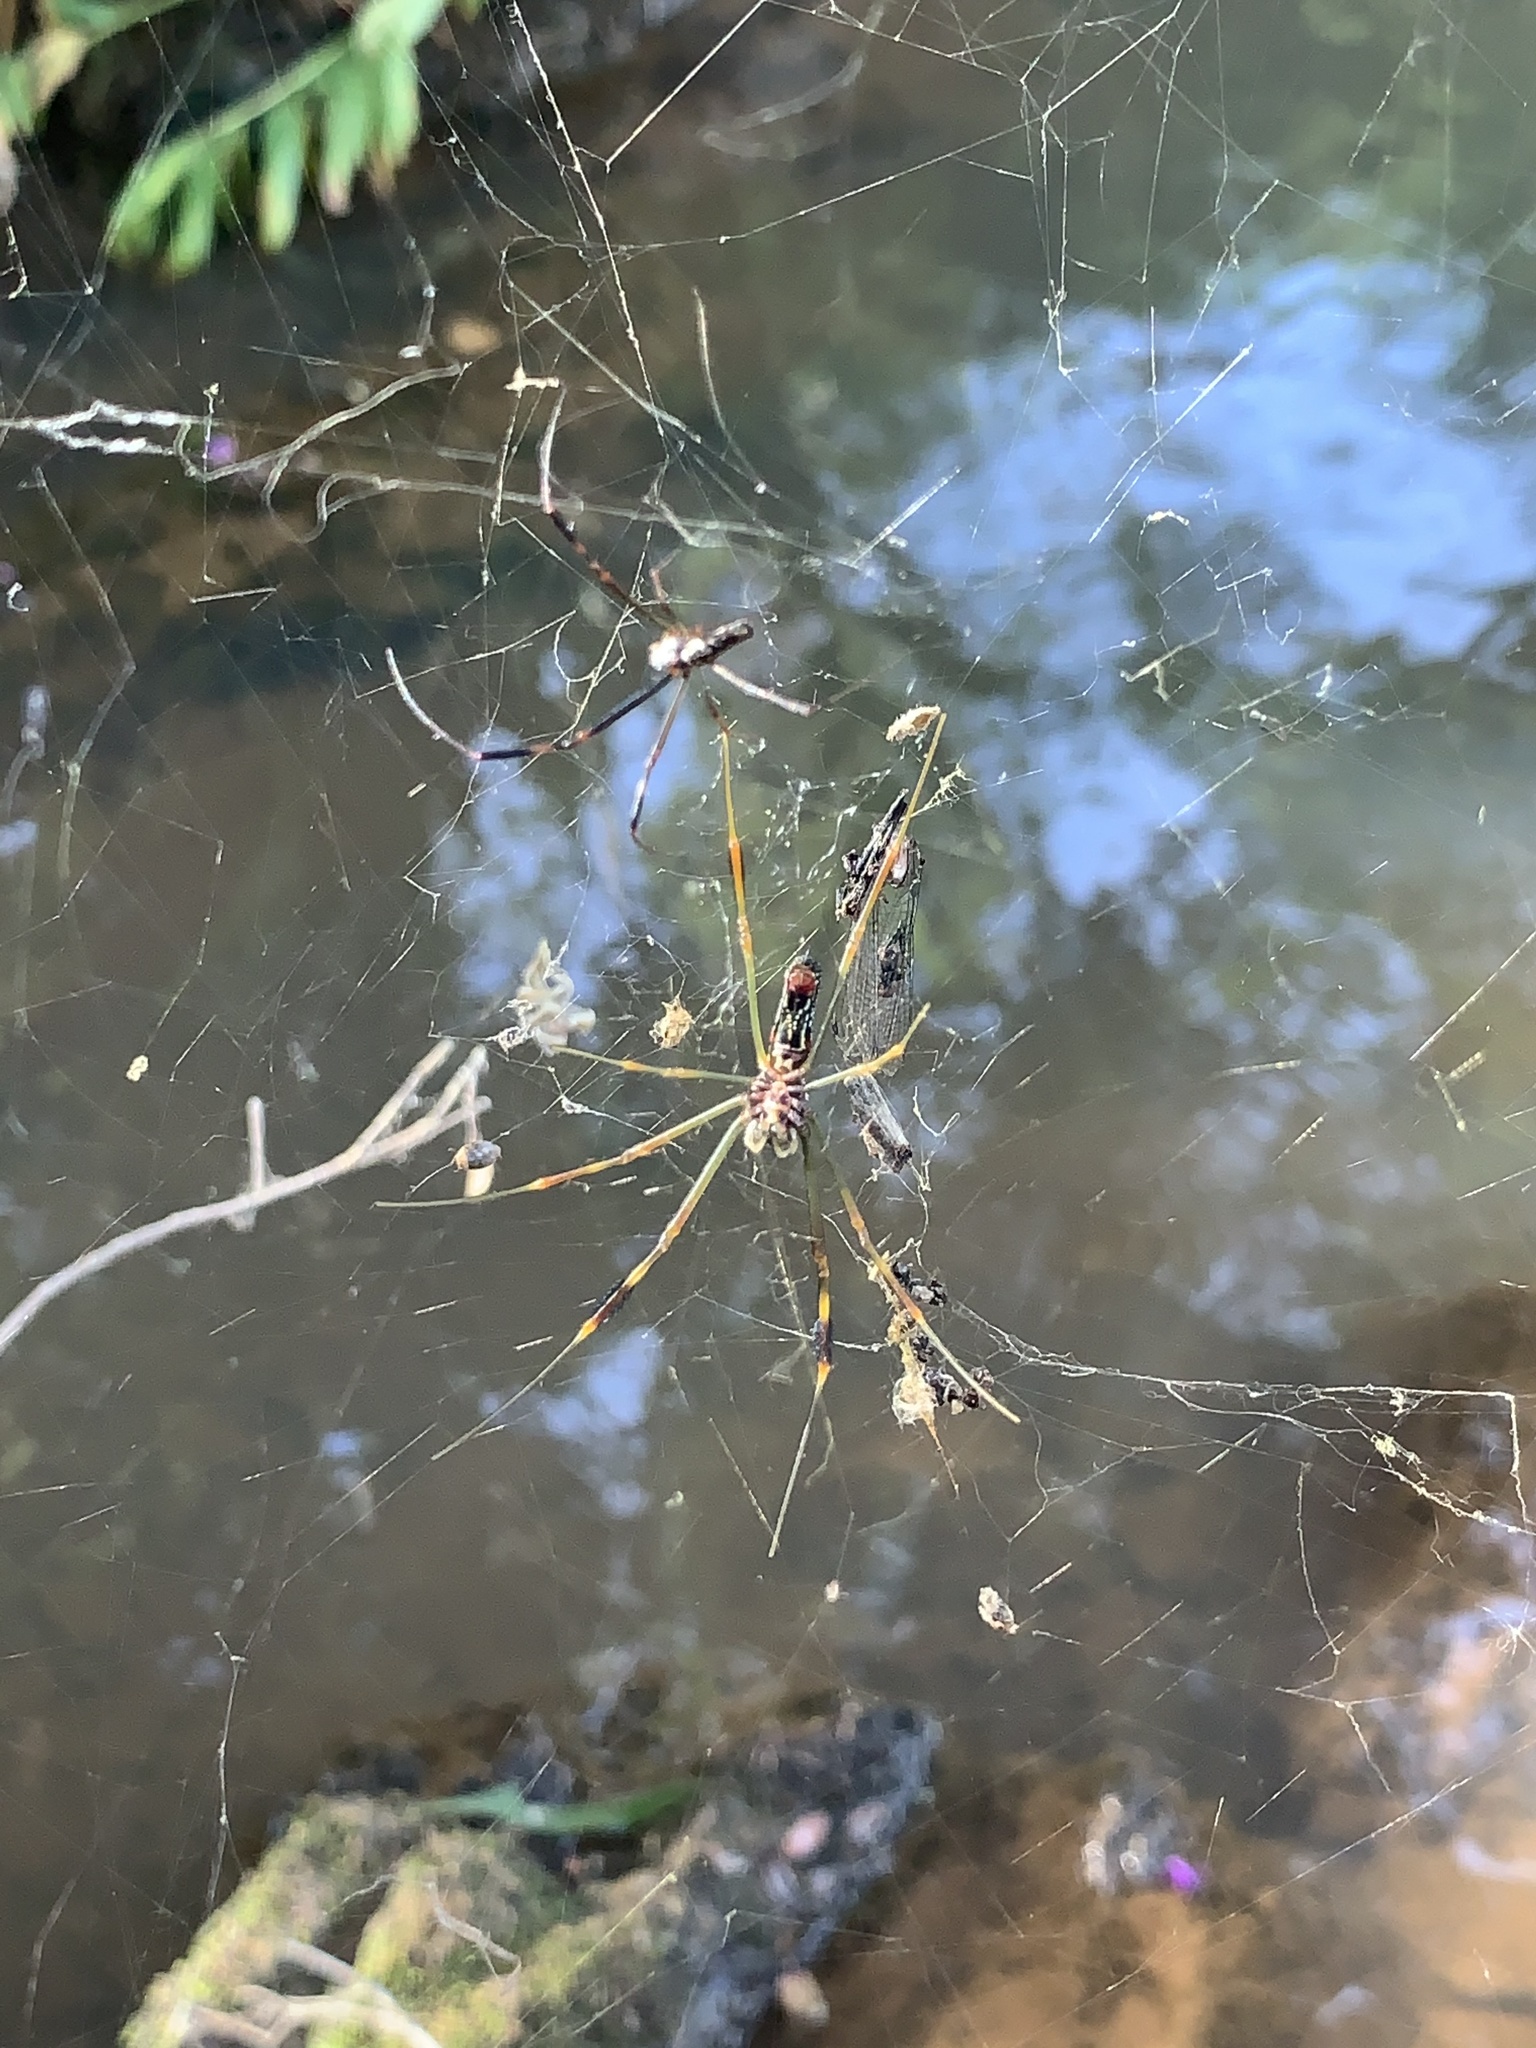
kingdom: Animalia
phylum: Arthropoda
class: Arachnida
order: Araneae
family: Araneidae
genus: Trichonephila
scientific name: Trichonephila clavipes
